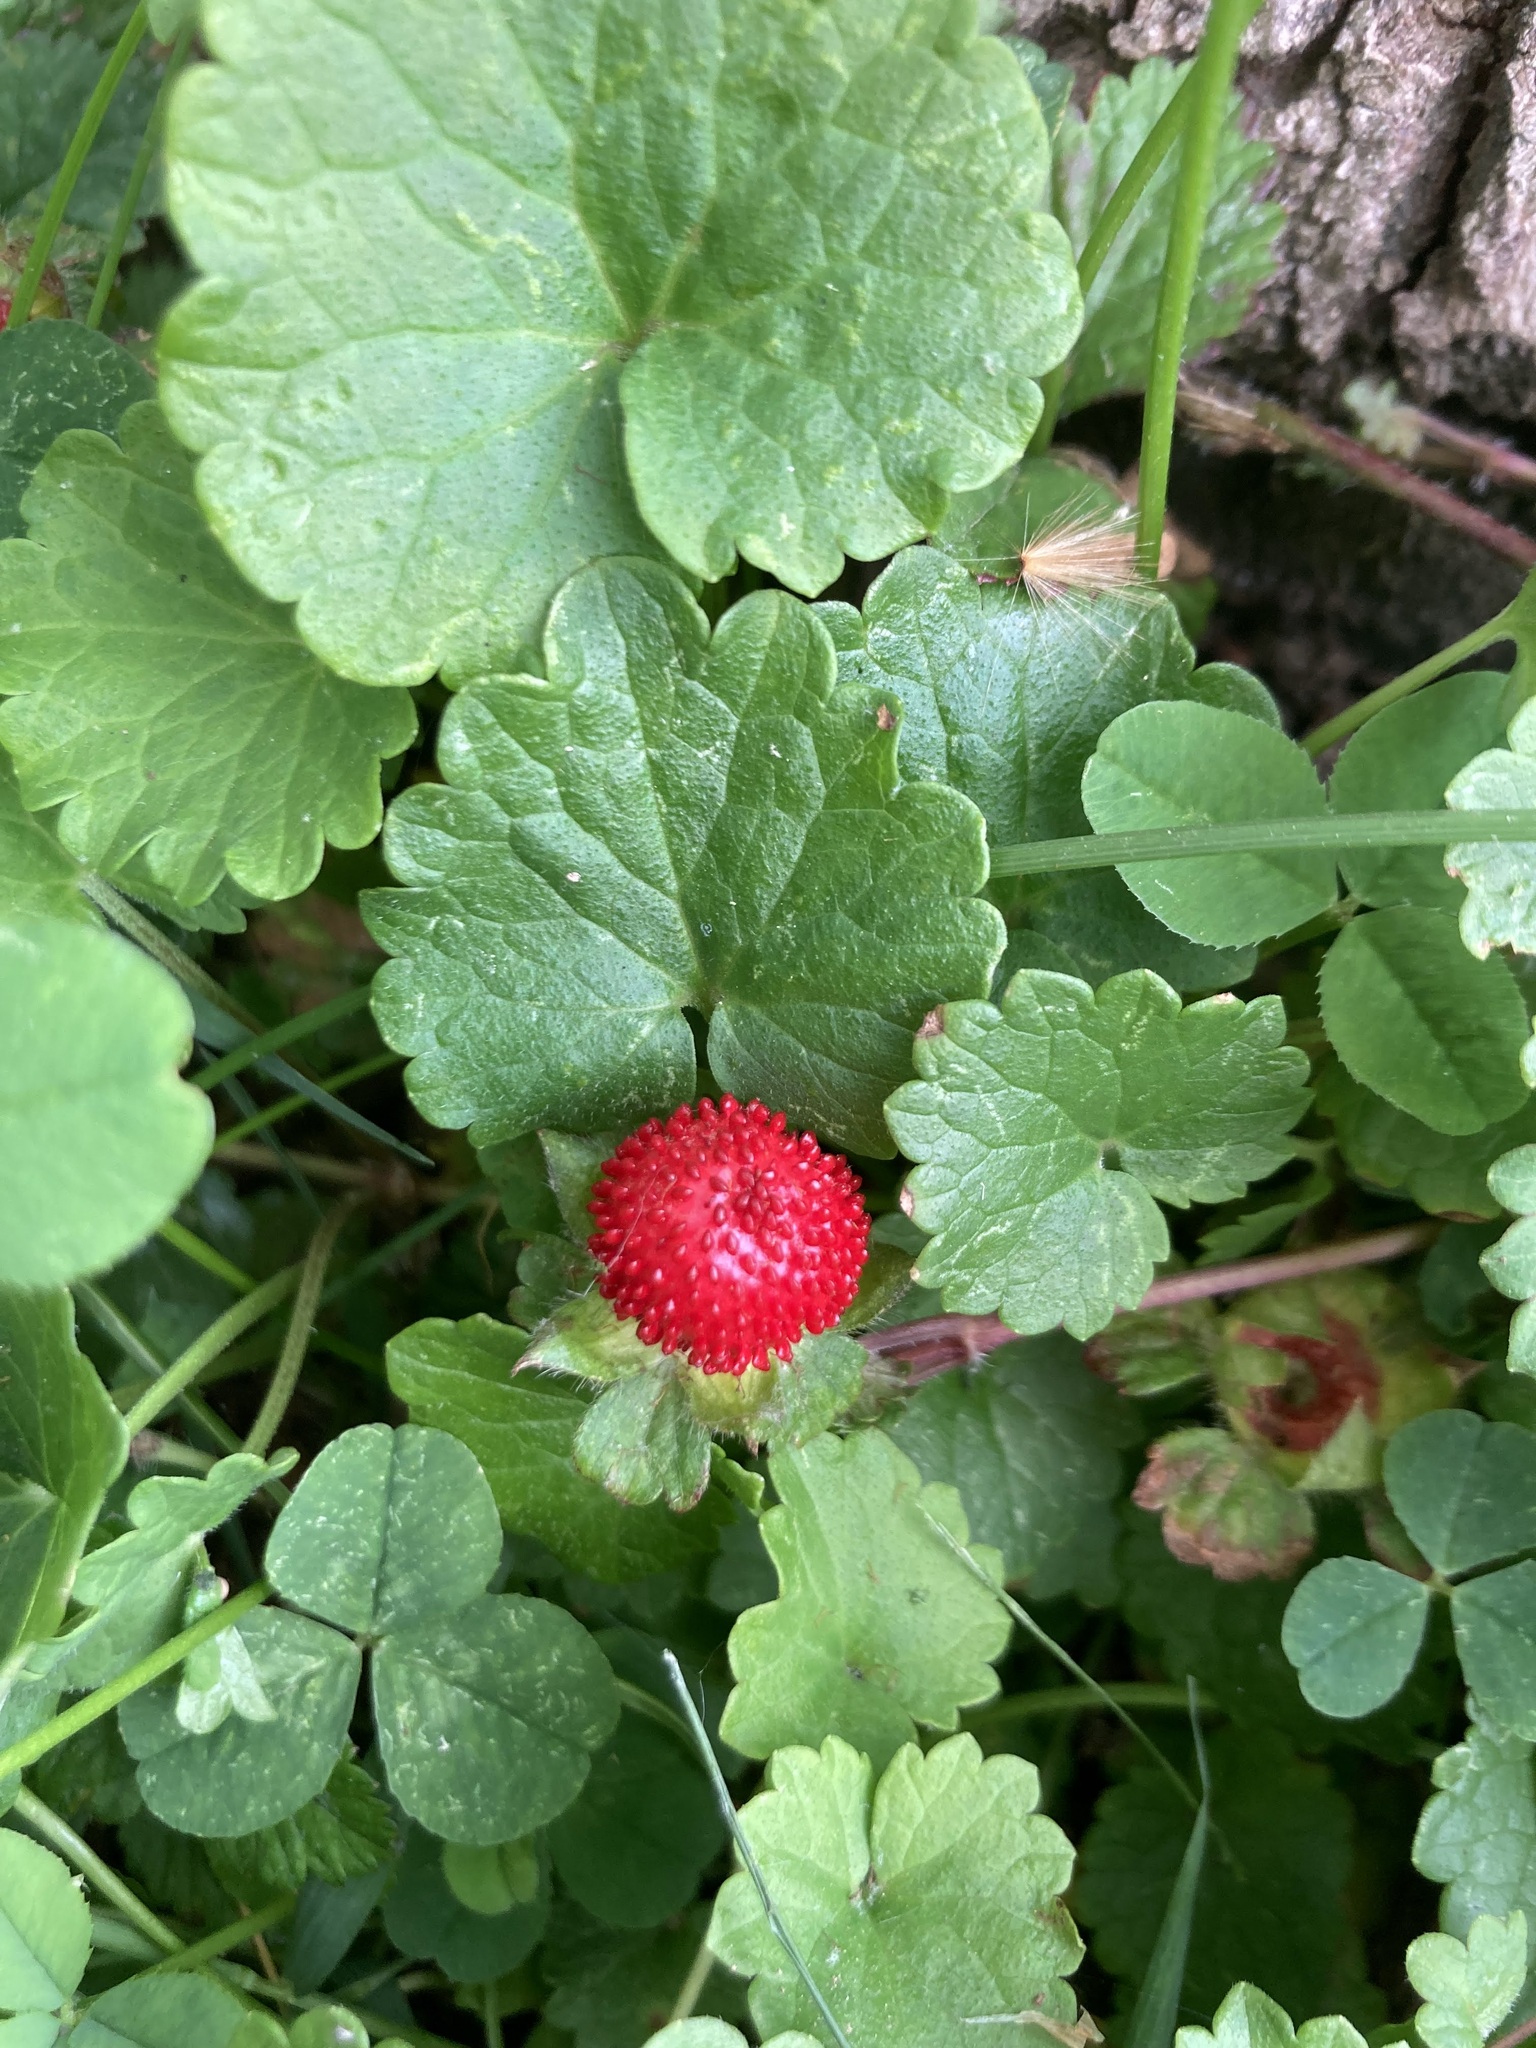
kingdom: Plantae
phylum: Tracheophyta
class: Magnoliopsida
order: Rosales
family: Rosaceae
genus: Potentilla
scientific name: Potentilla indica
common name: Yellow-flowered strawberry
